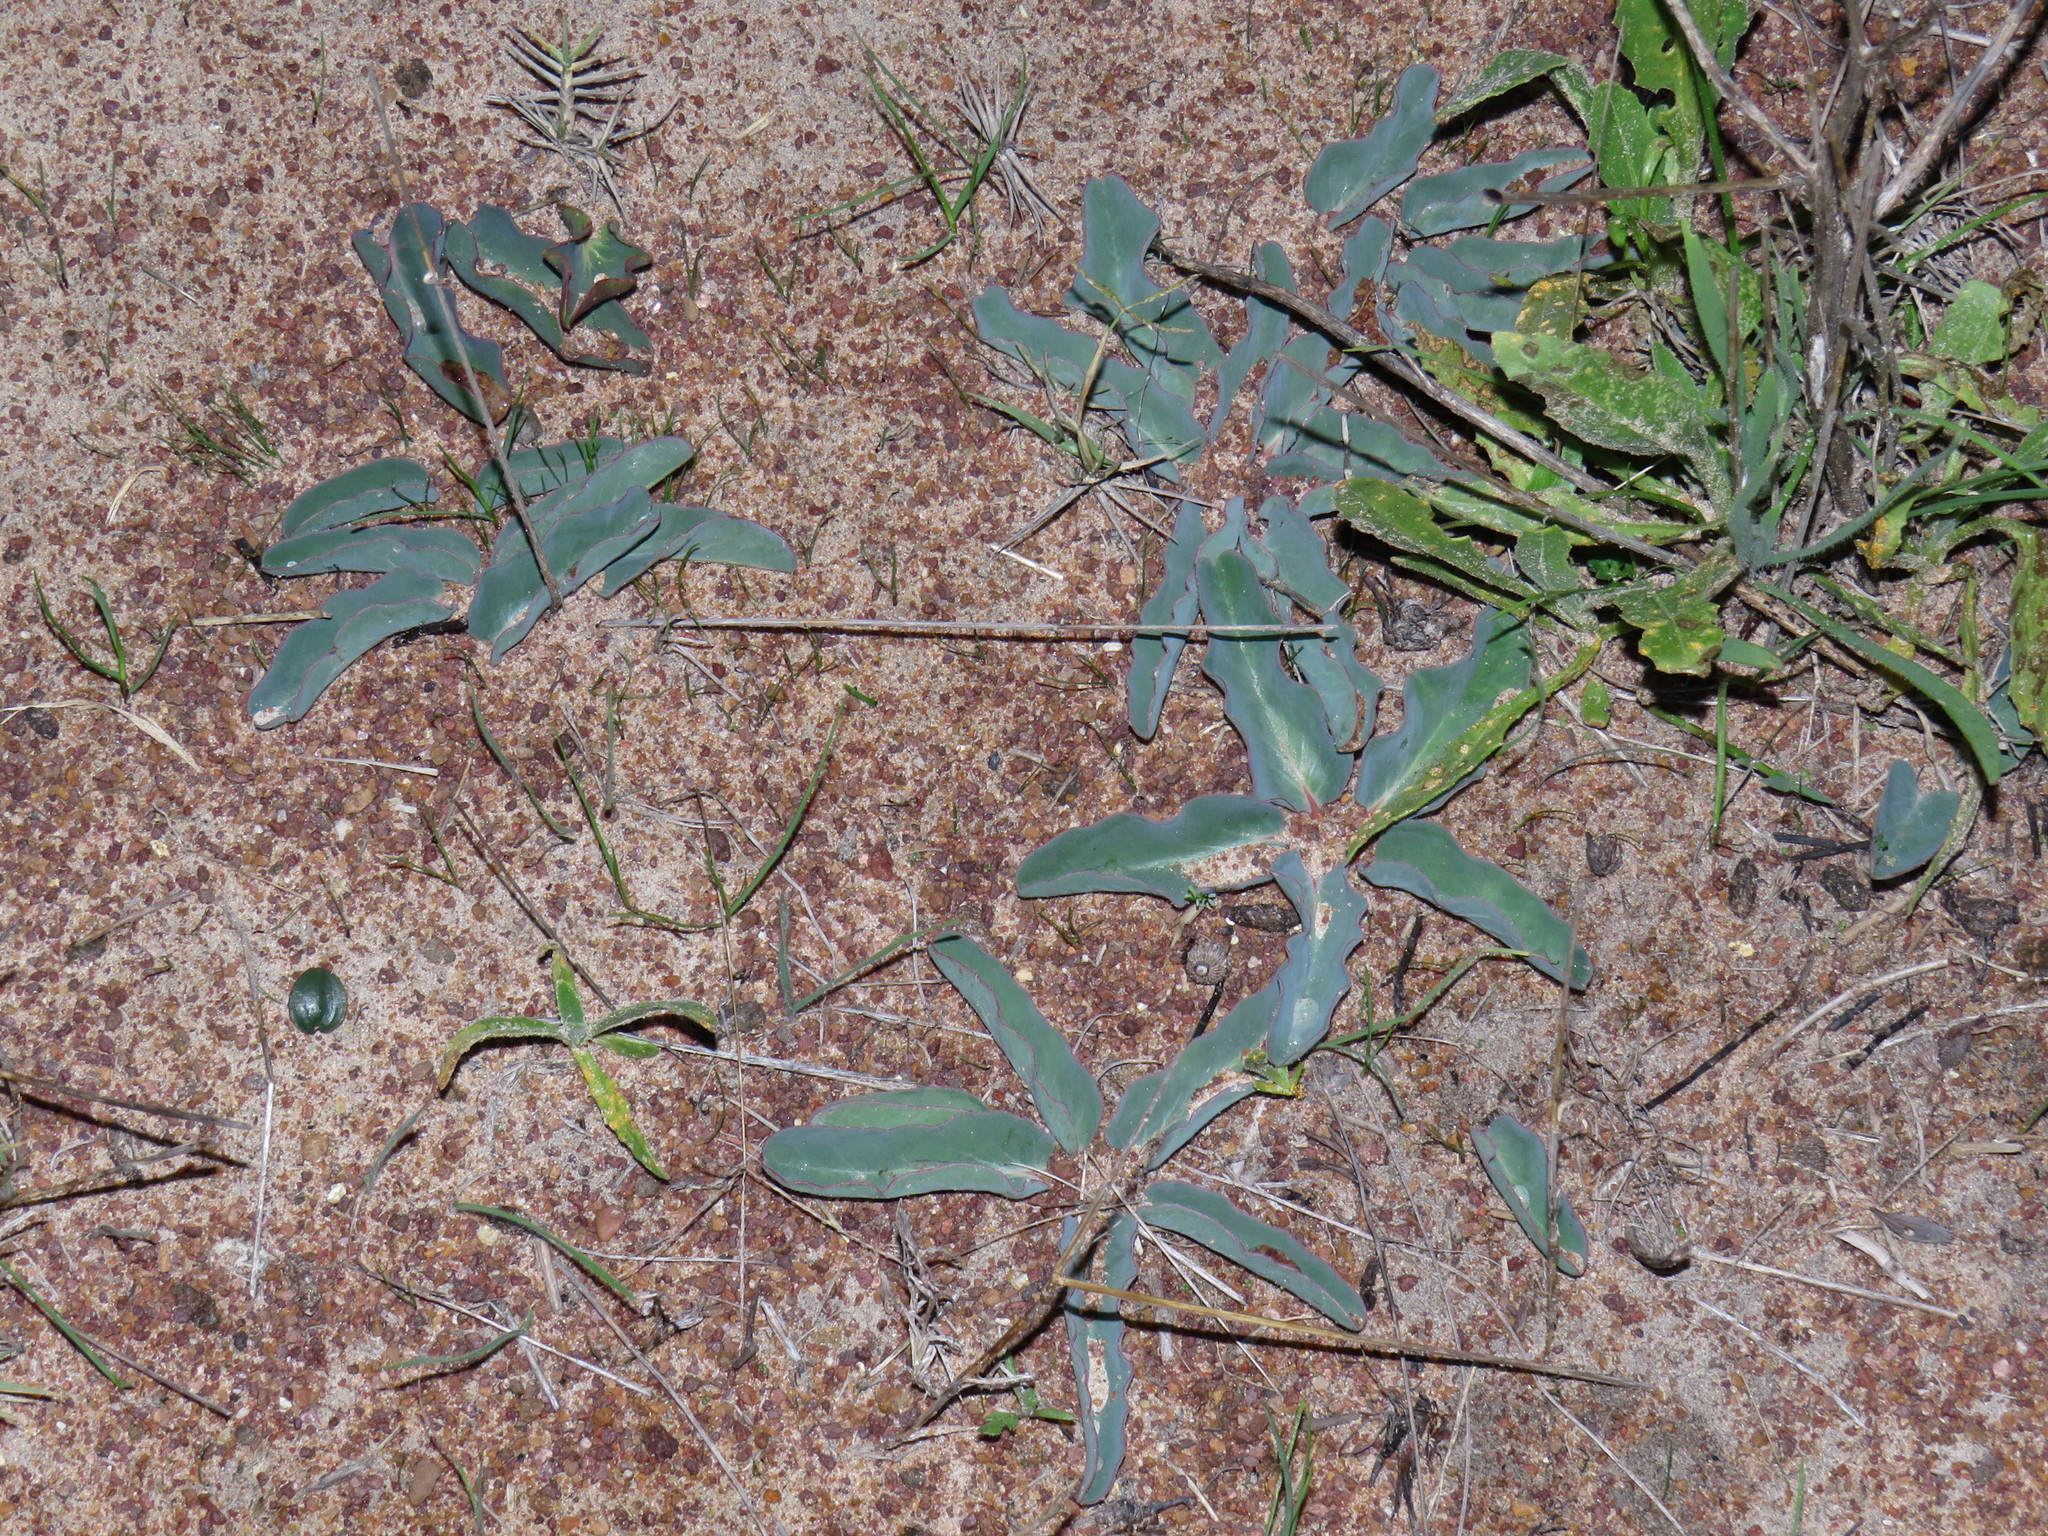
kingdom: Plantae
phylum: Tracheophyta
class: Magnoliopsida
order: Malpighiales
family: Euphorbiaceae
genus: Euphorbia
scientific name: Euphorbia tuberosa
